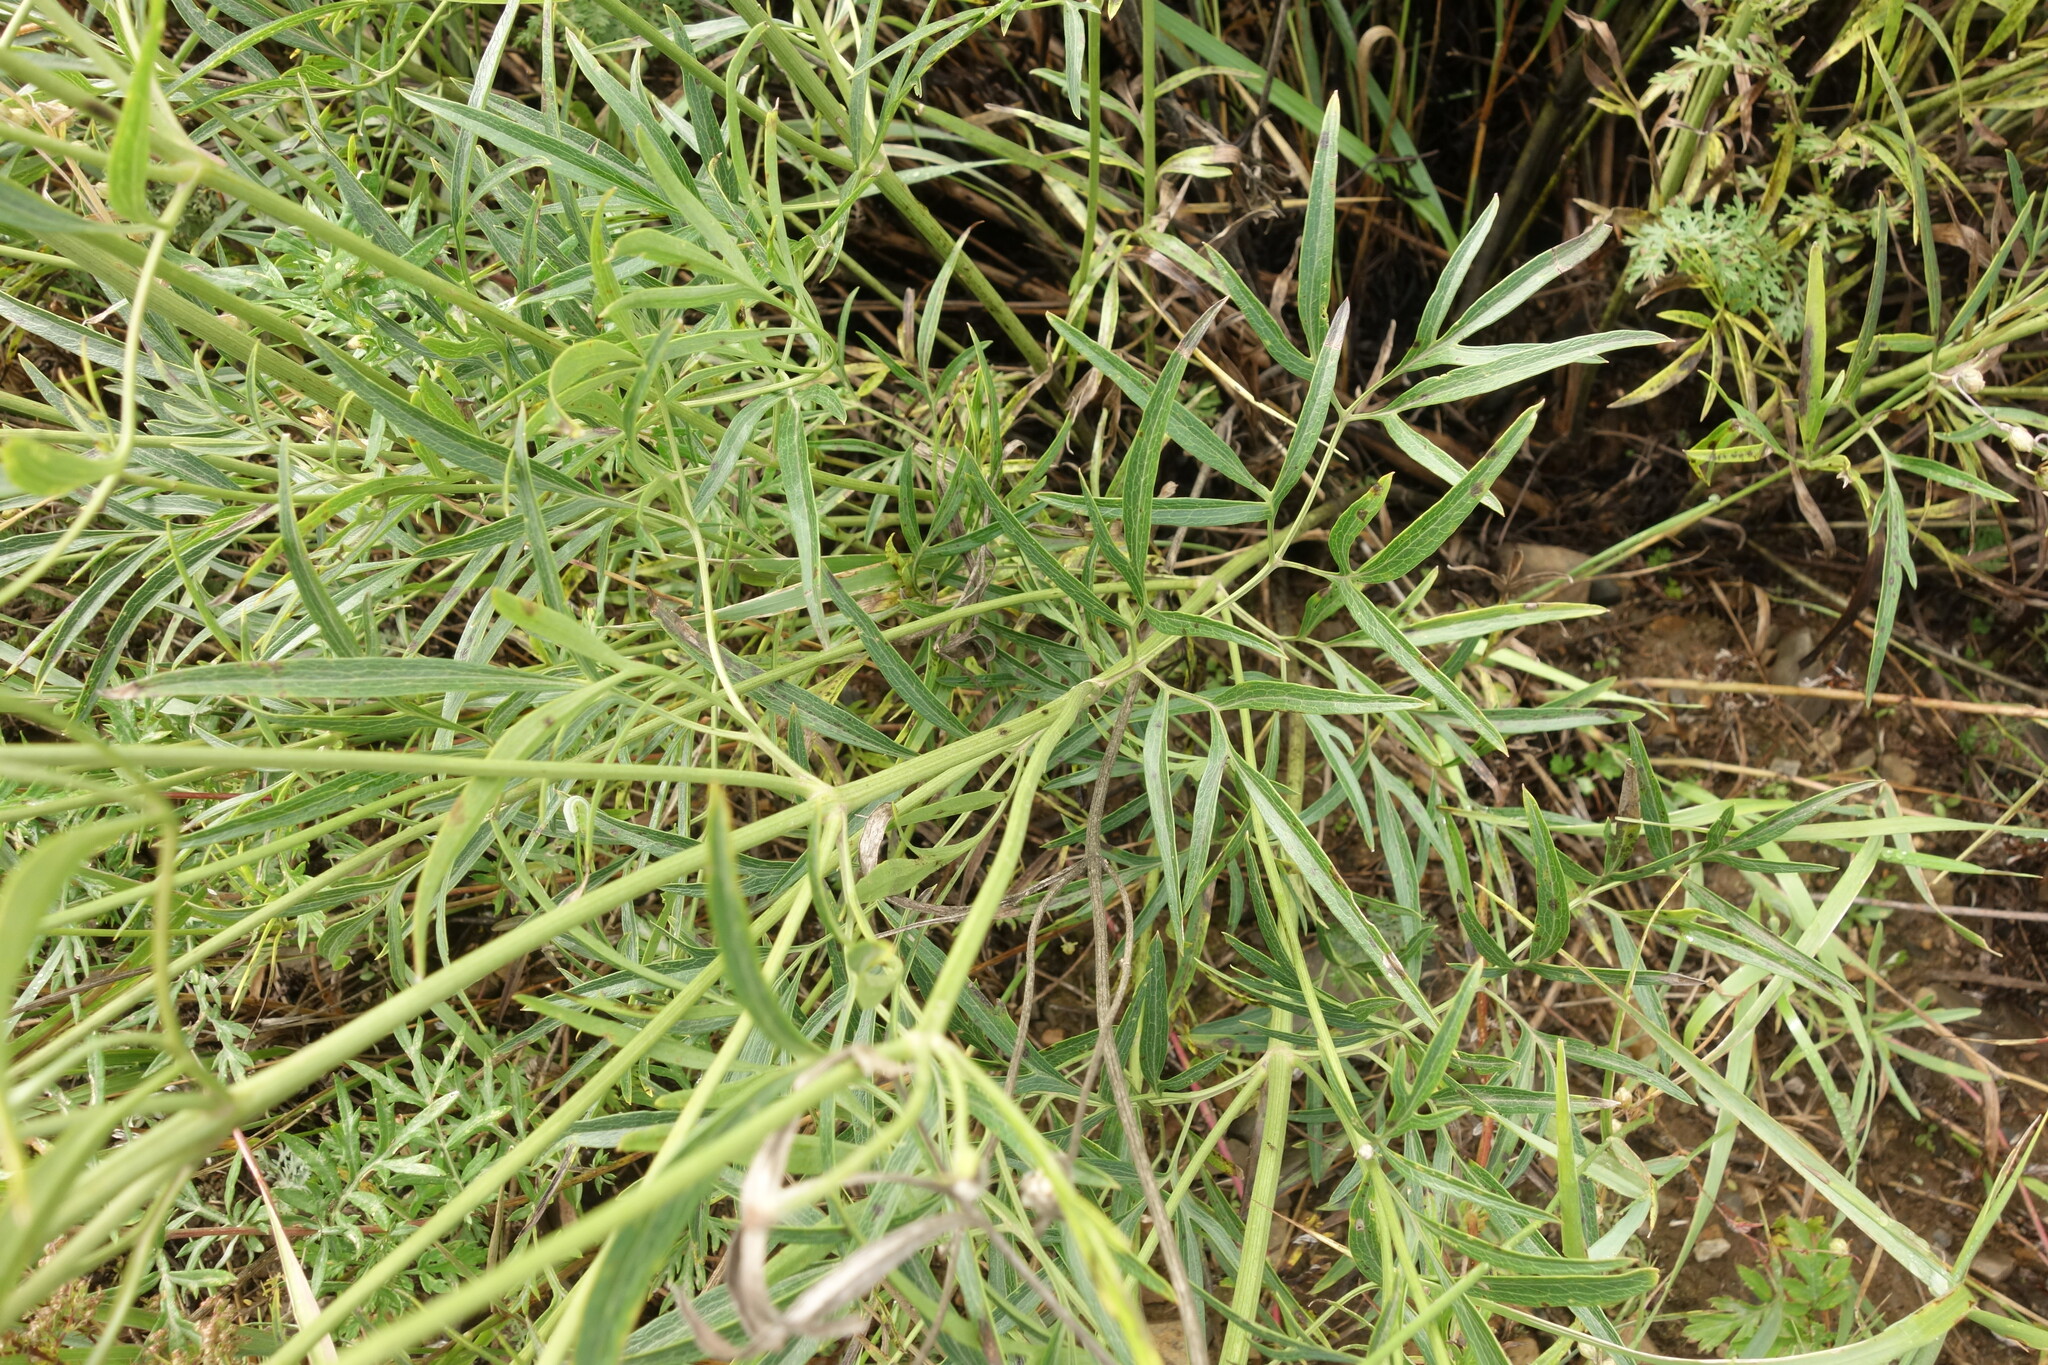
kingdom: Plantae
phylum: Tracheophyta
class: Magnoliopsida
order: Ranunculales
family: Ranunculaceae
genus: Clematis
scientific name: Clematis hexapetala
